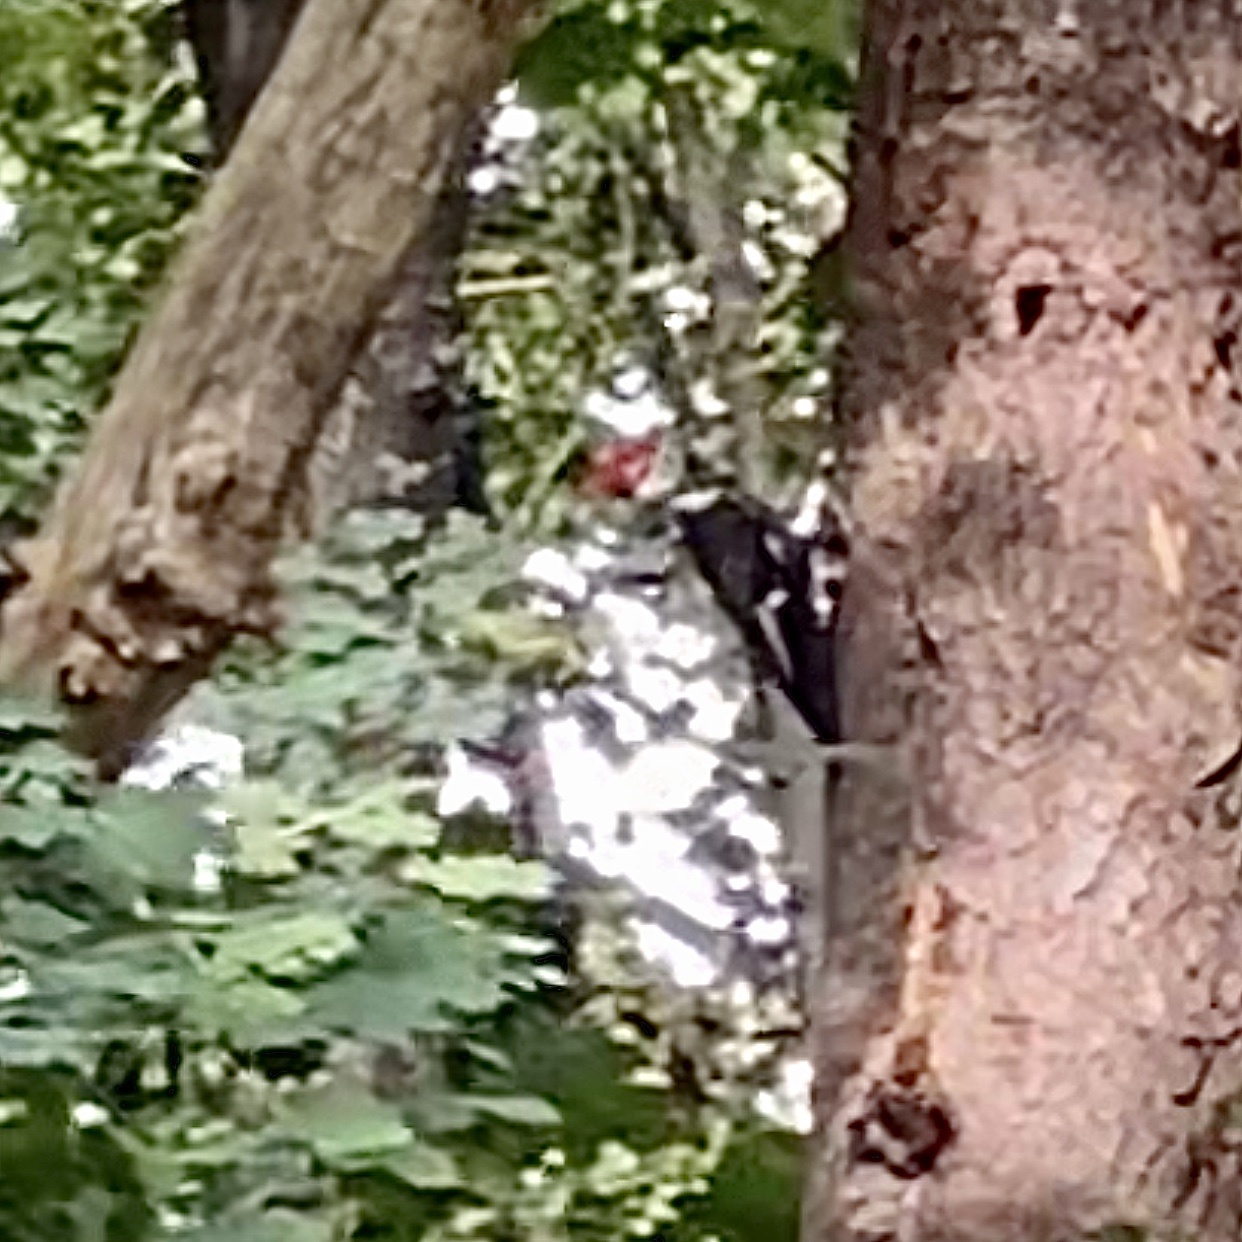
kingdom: Animalia
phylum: Chordata
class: Aves
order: Piciformes
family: Picidae
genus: Dryocopus
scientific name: Dryocopus pileatus
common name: Pileated woodpecker
